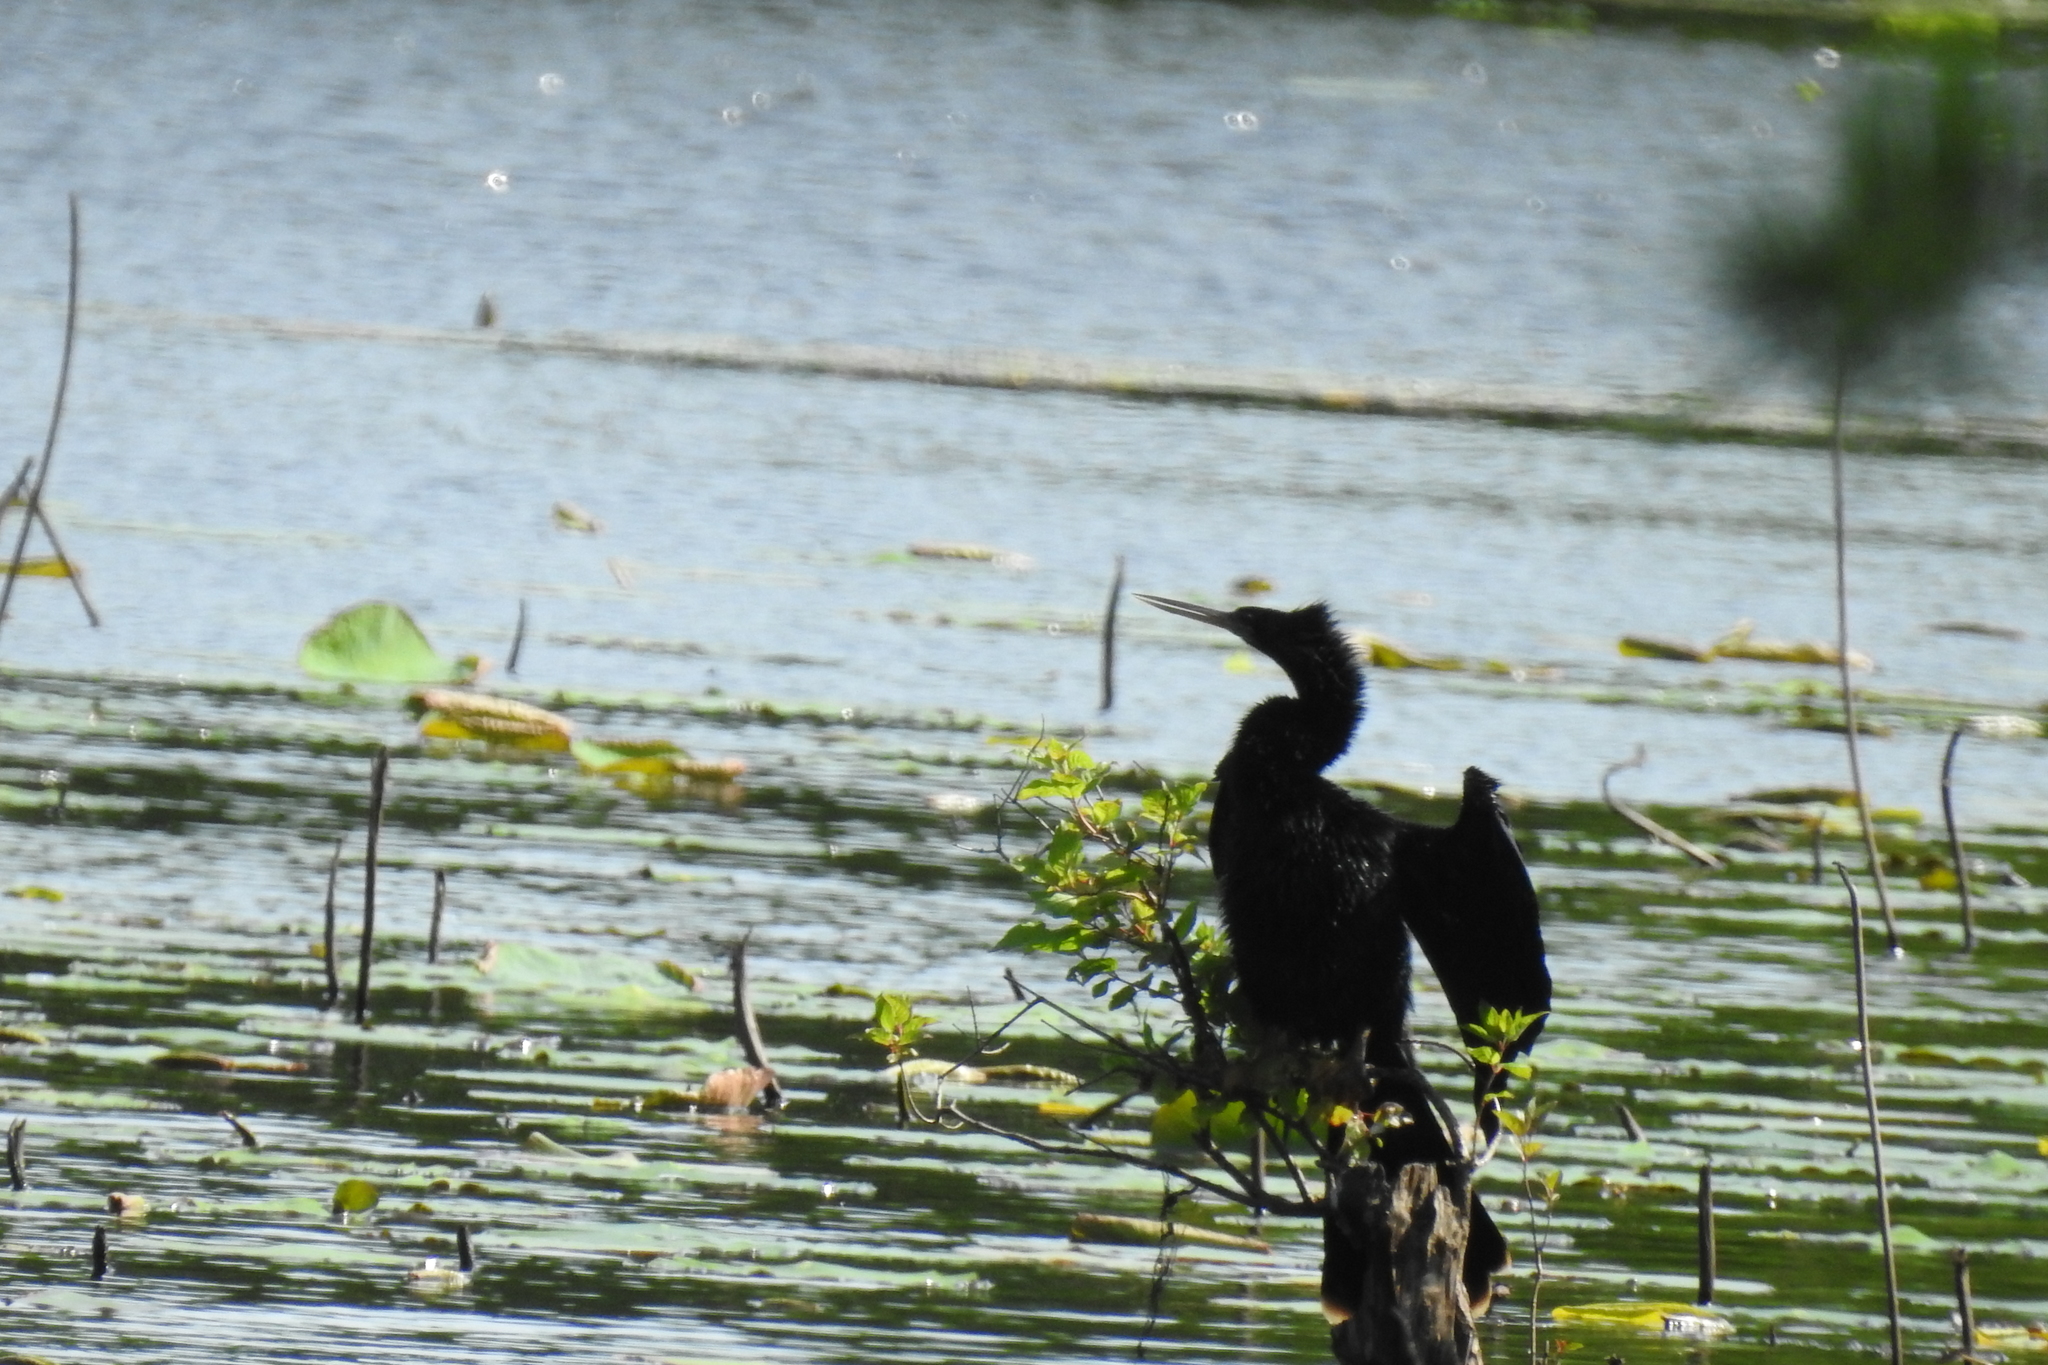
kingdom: Animalia
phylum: Chordata
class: Aves
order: Suliformes
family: Anhingidae
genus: Anhinga
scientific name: Anhinga anhinga
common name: Anhinga
